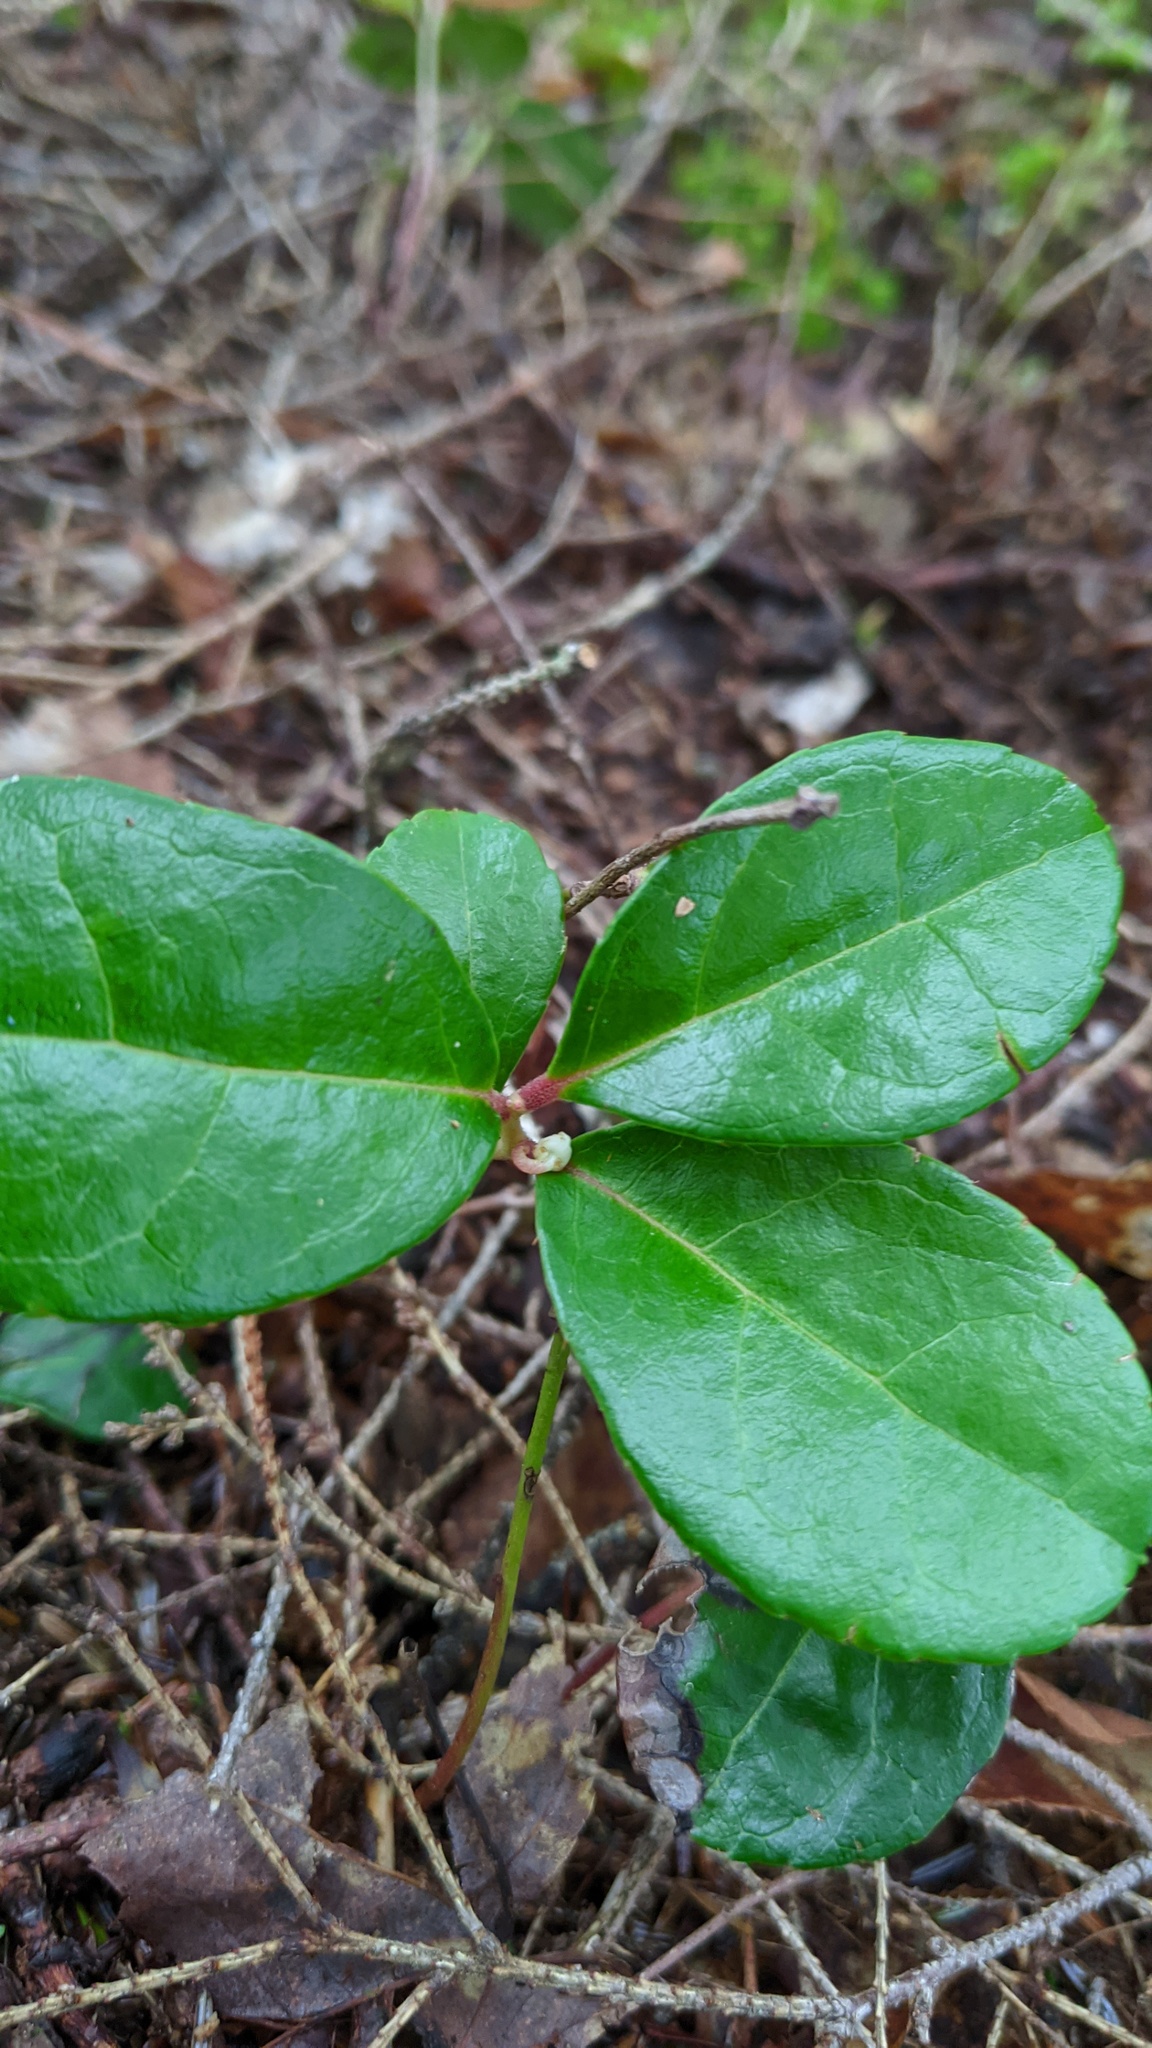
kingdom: Plantae
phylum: Tracheophyta
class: Magnoliopsida
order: Ericales
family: Ericaceae
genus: Gaultheria
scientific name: Gaultheria procumbens
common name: Checkerberry
